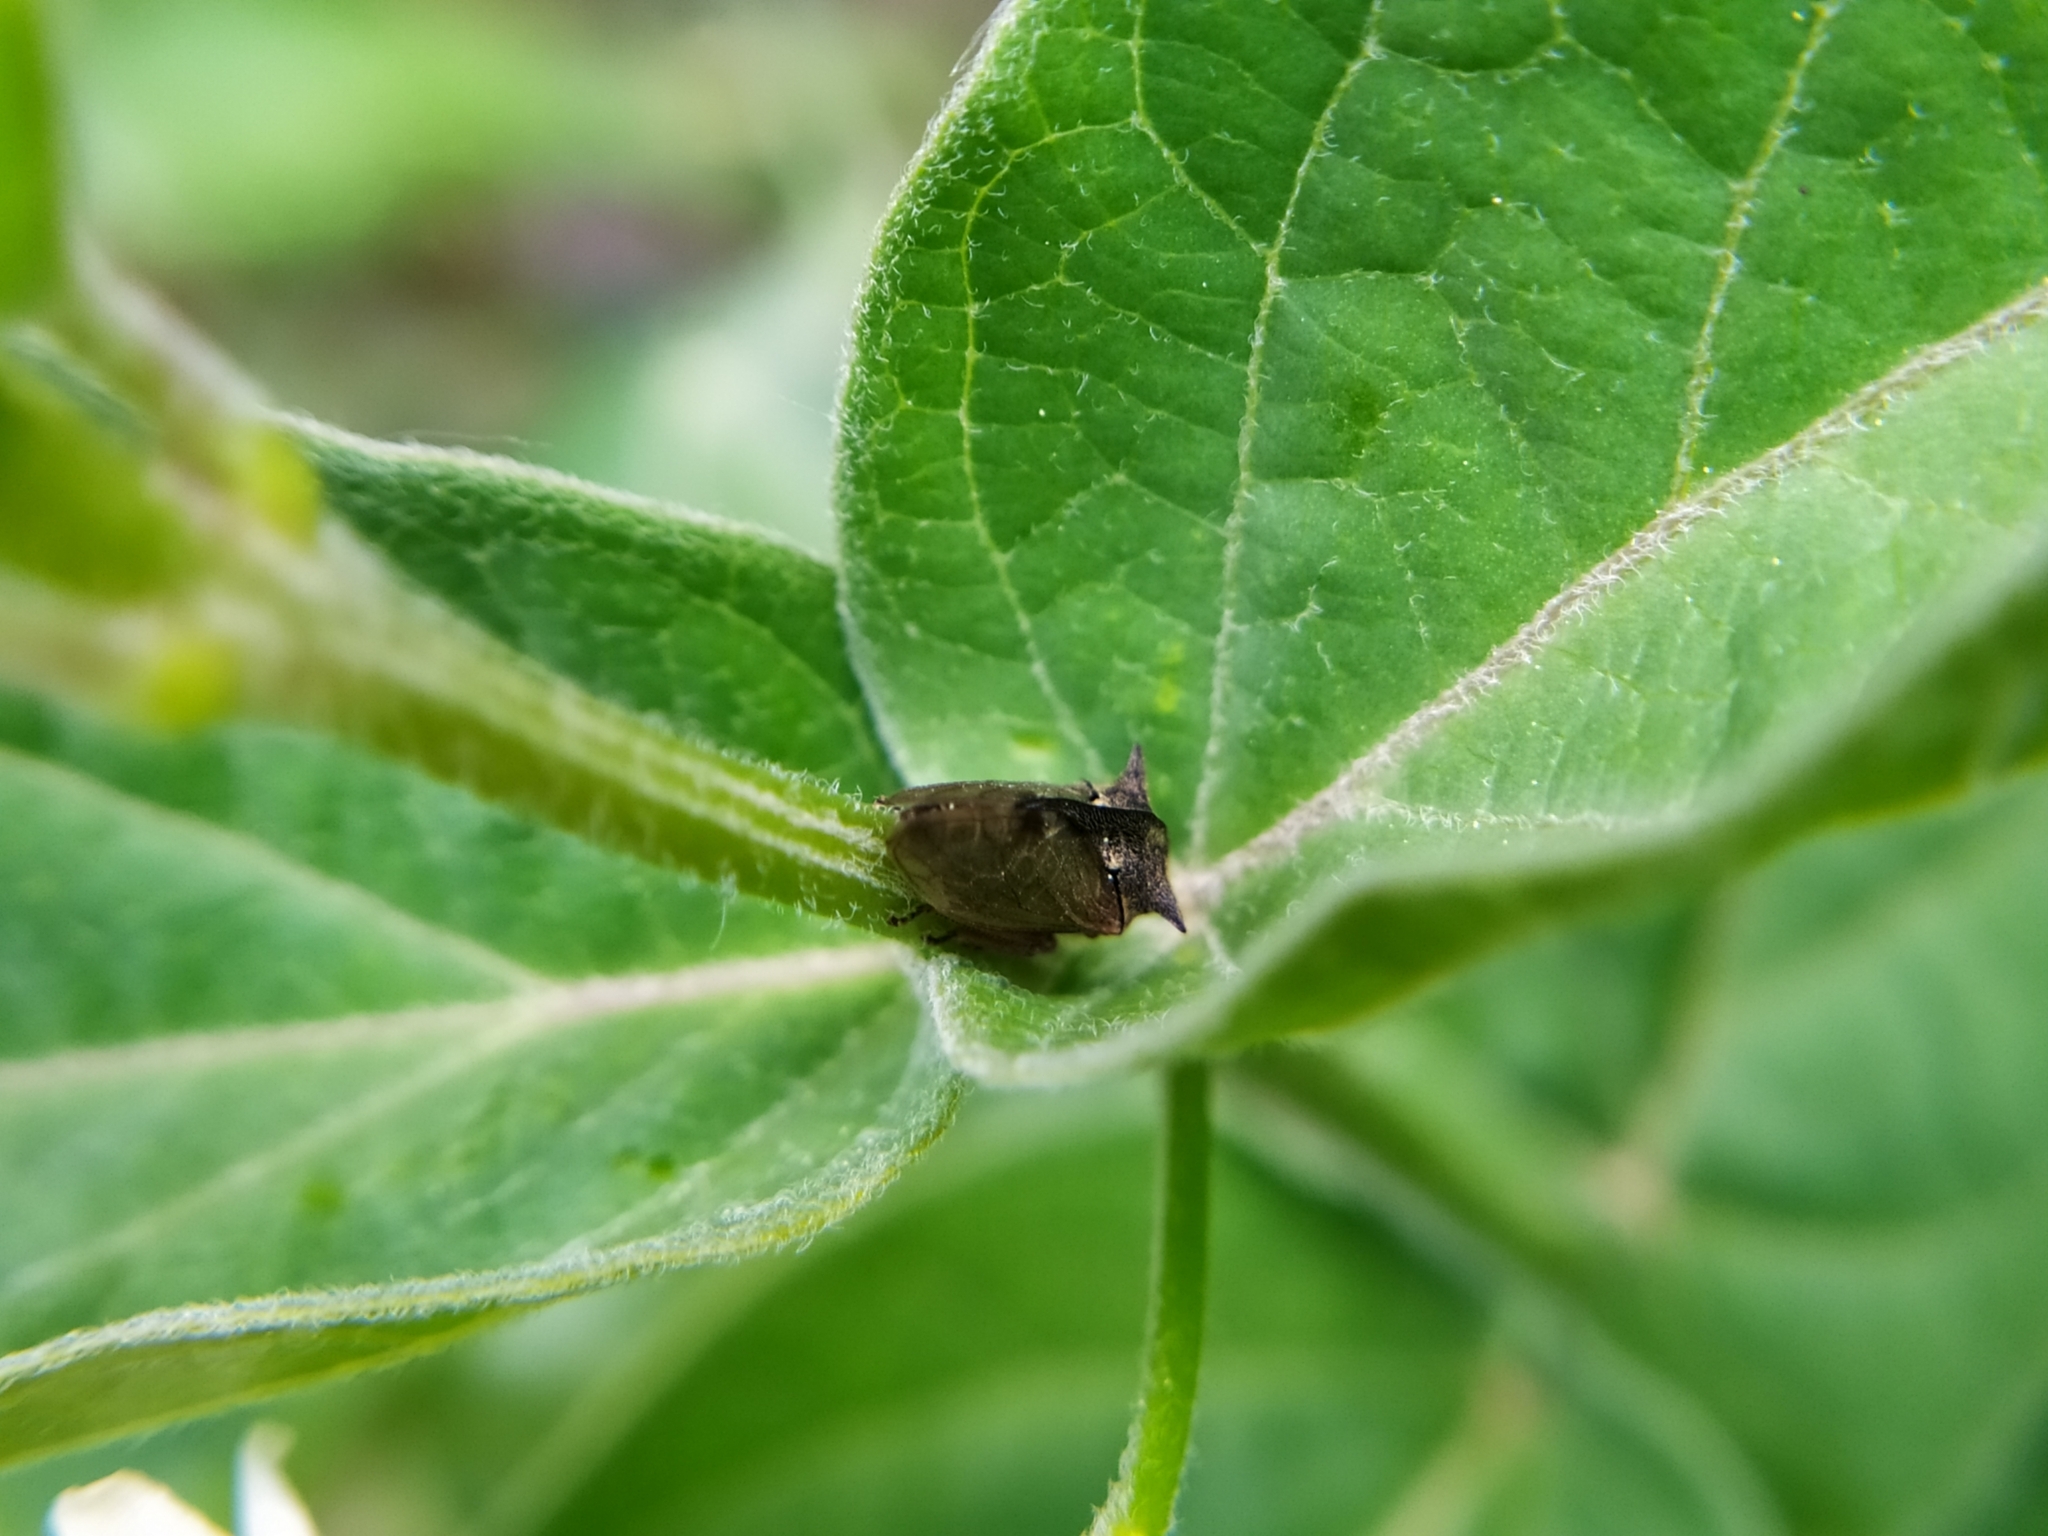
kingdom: Animalia
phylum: Arthropoda
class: Insecta
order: Hemiptera
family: Membracidae
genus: Centrotus
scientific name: Centrotus cornuta
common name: Treehopper
